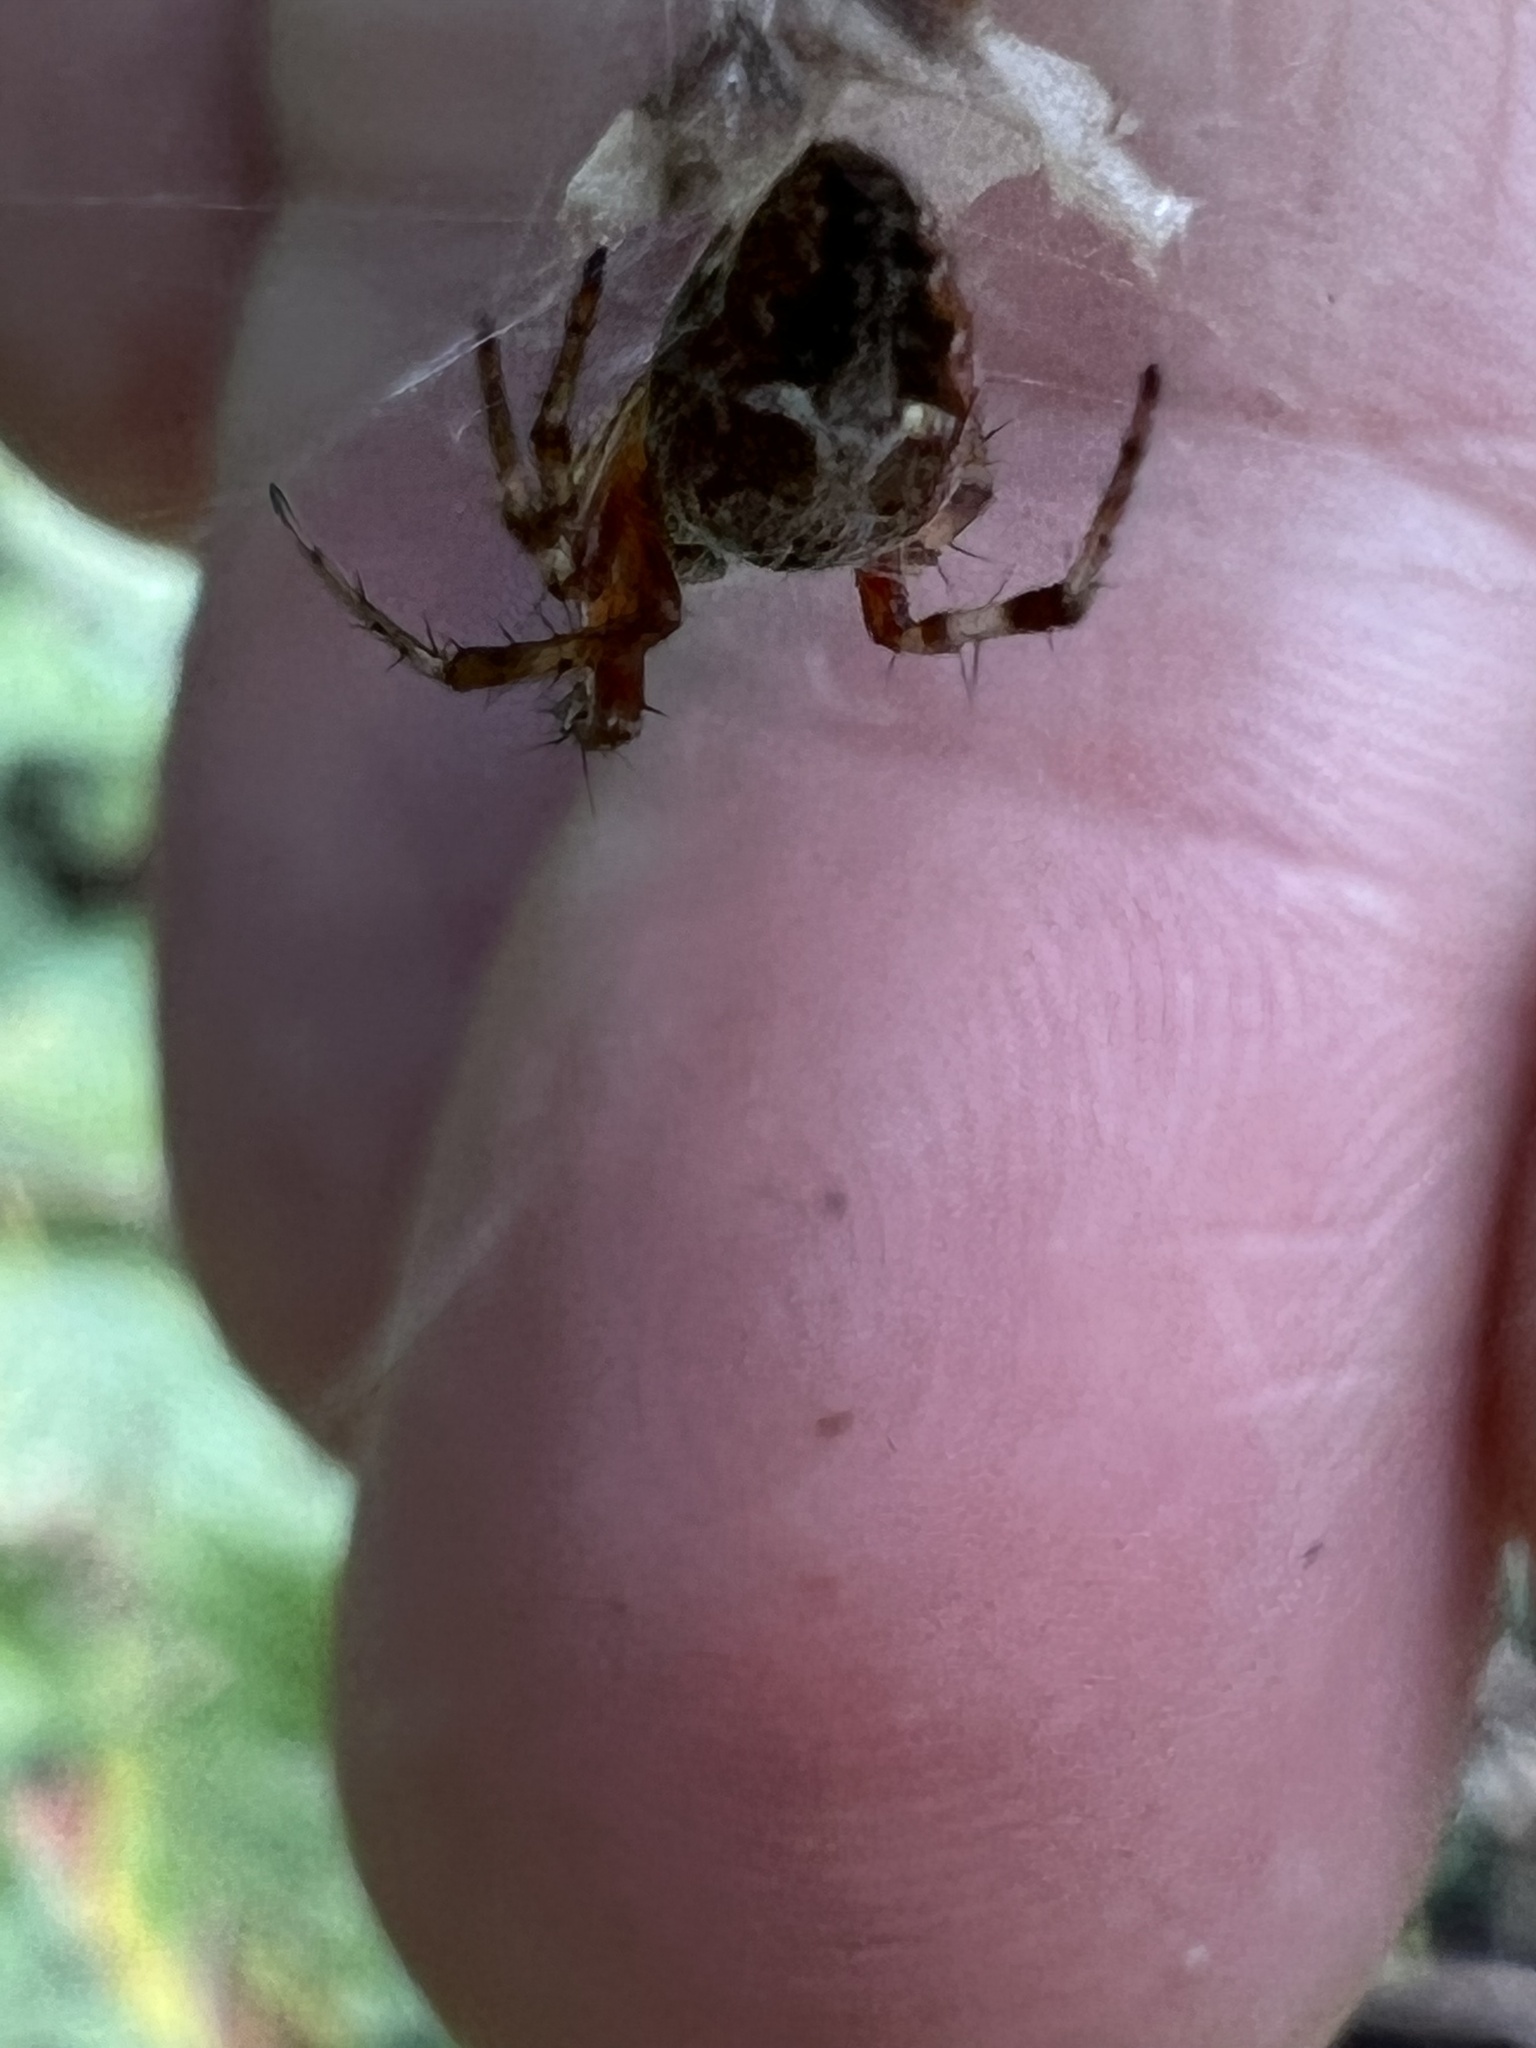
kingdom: Animalia
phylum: Arthropoda
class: Arachnida
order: Araneae
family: Araneidae
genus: Metepeira
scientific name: Metepeira labyrinthea
